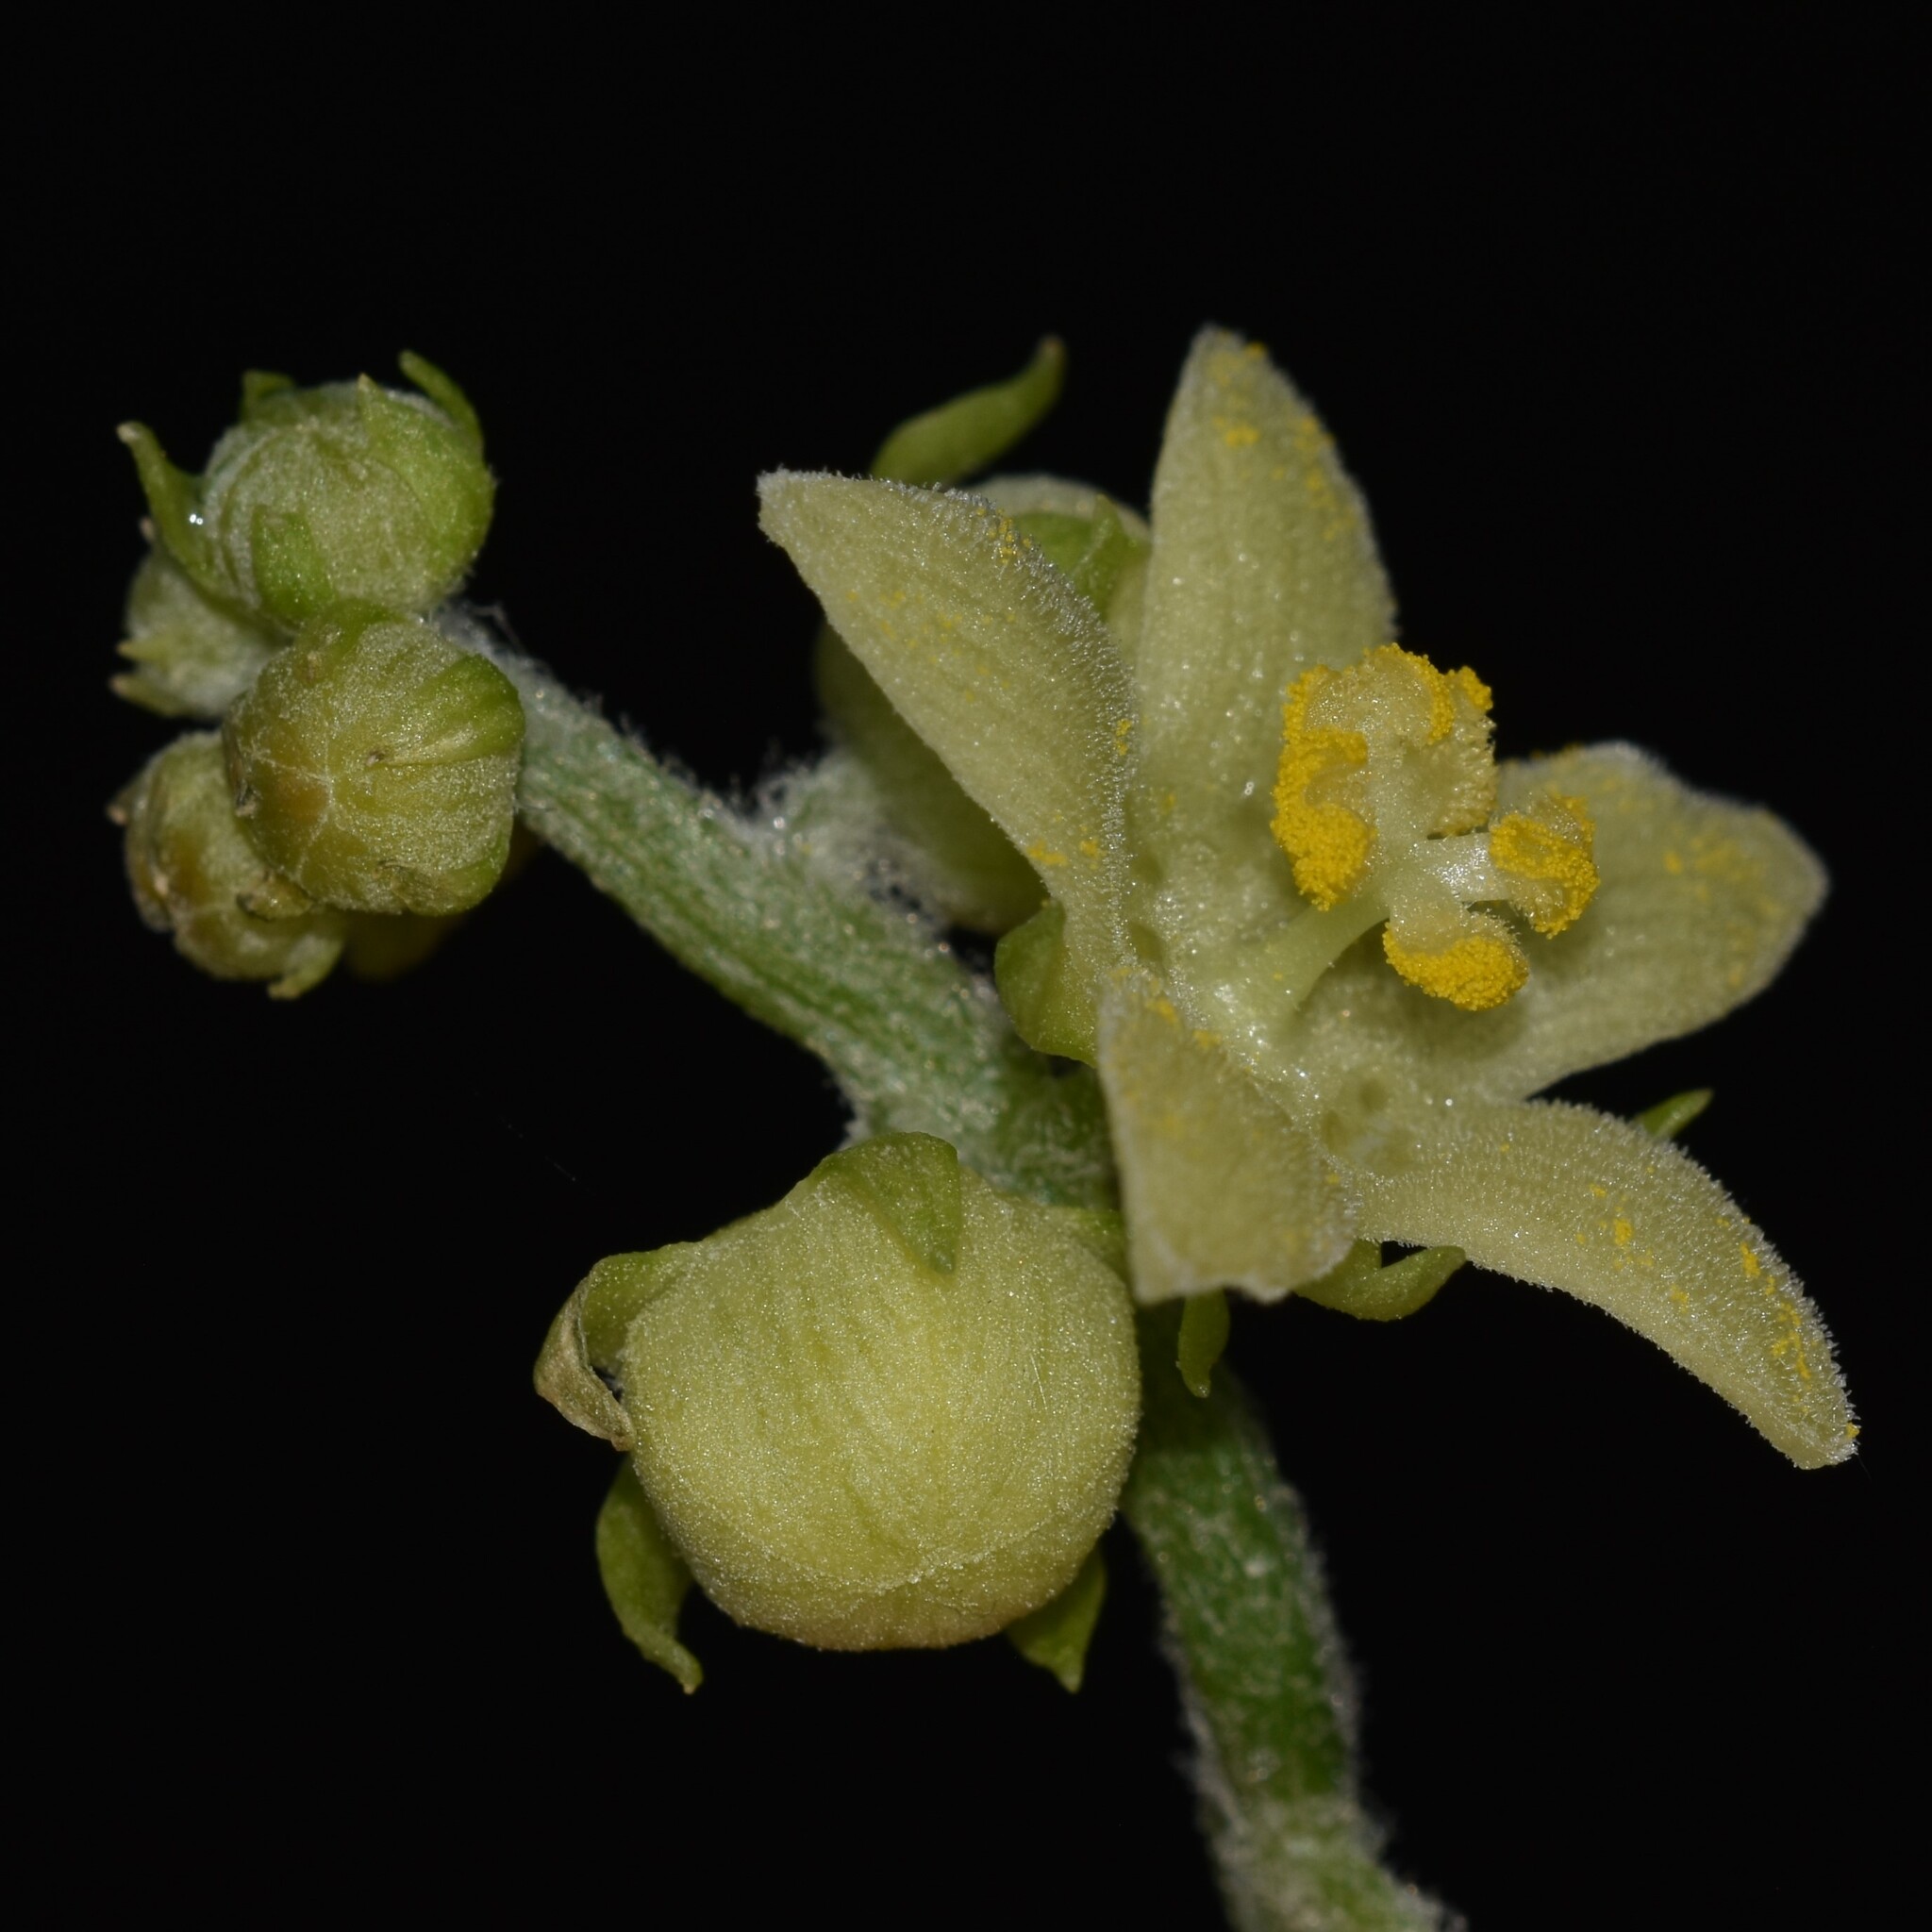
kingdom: Plantae
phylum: Tracheophyta
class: Magnoliopsida
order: Cucurbitales
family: Cucurbitaceae
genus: Sechium
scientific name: Sechium edule
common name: Chayote
